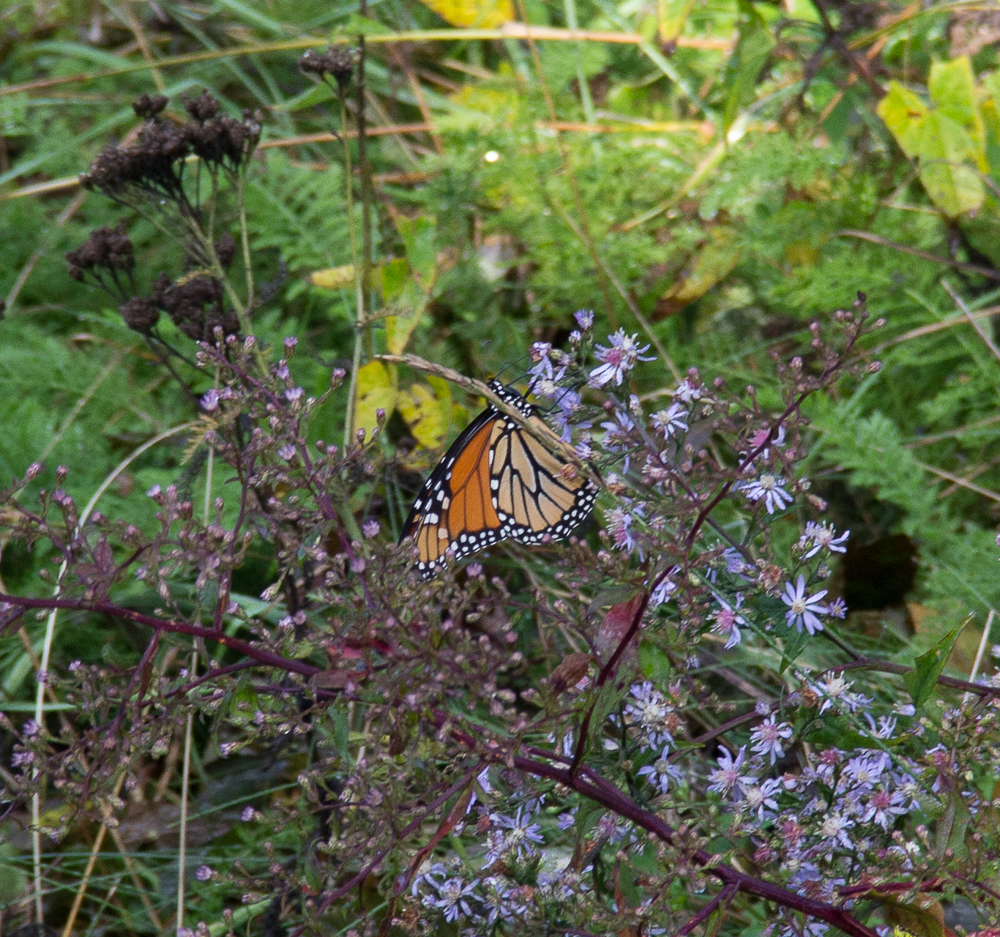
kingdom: Animalia
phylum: Arthropoda
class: Insecta
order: Lepidoptera
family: Nymphalidae
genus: Danaus
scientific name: Danaus plexippus
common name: Monarch
